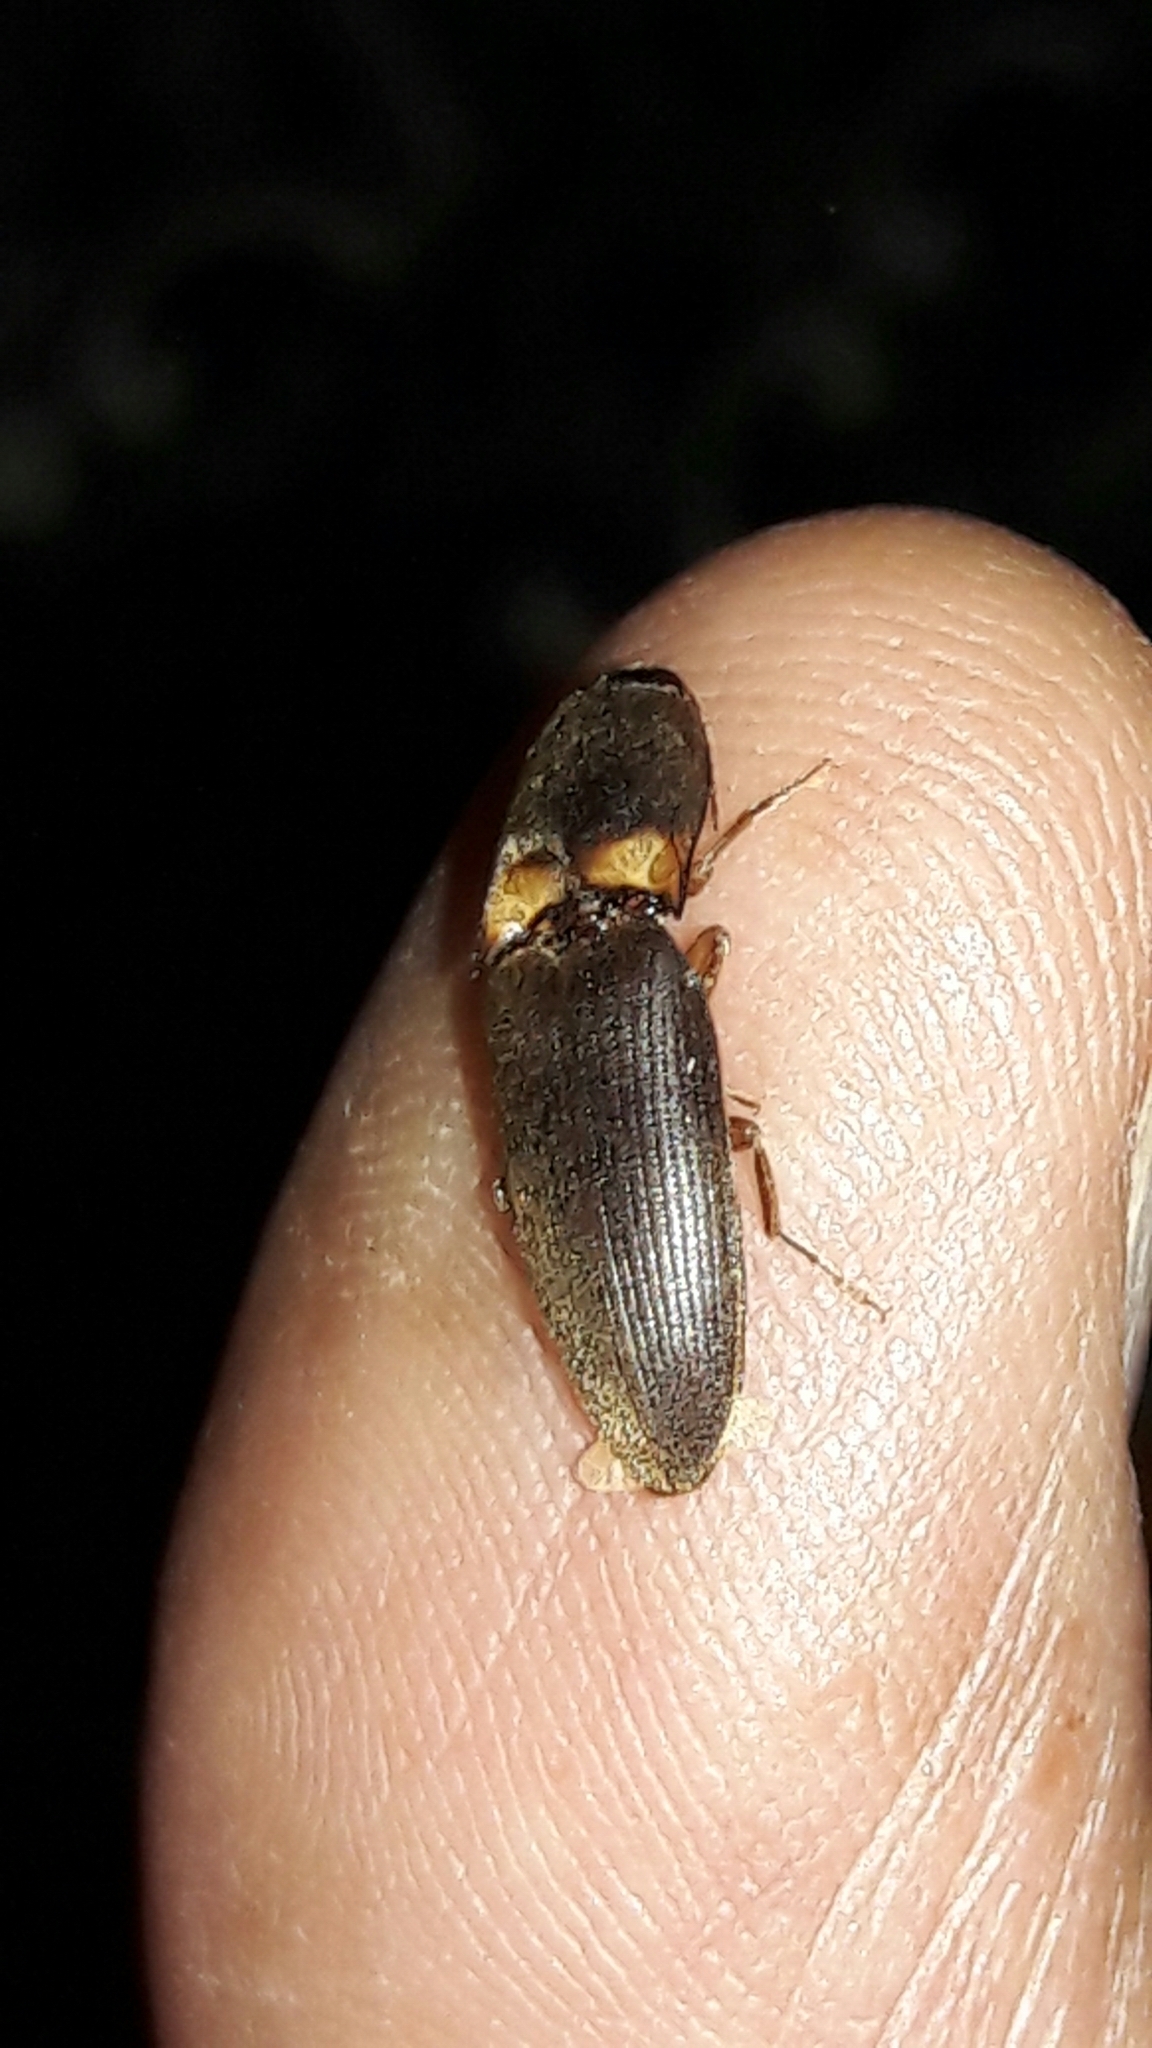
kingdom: Animalia
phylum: Arthropoda
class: Insecta
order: Coleoptera
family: Elateridae
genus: Monocrepidius
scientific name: Monocrepidius
